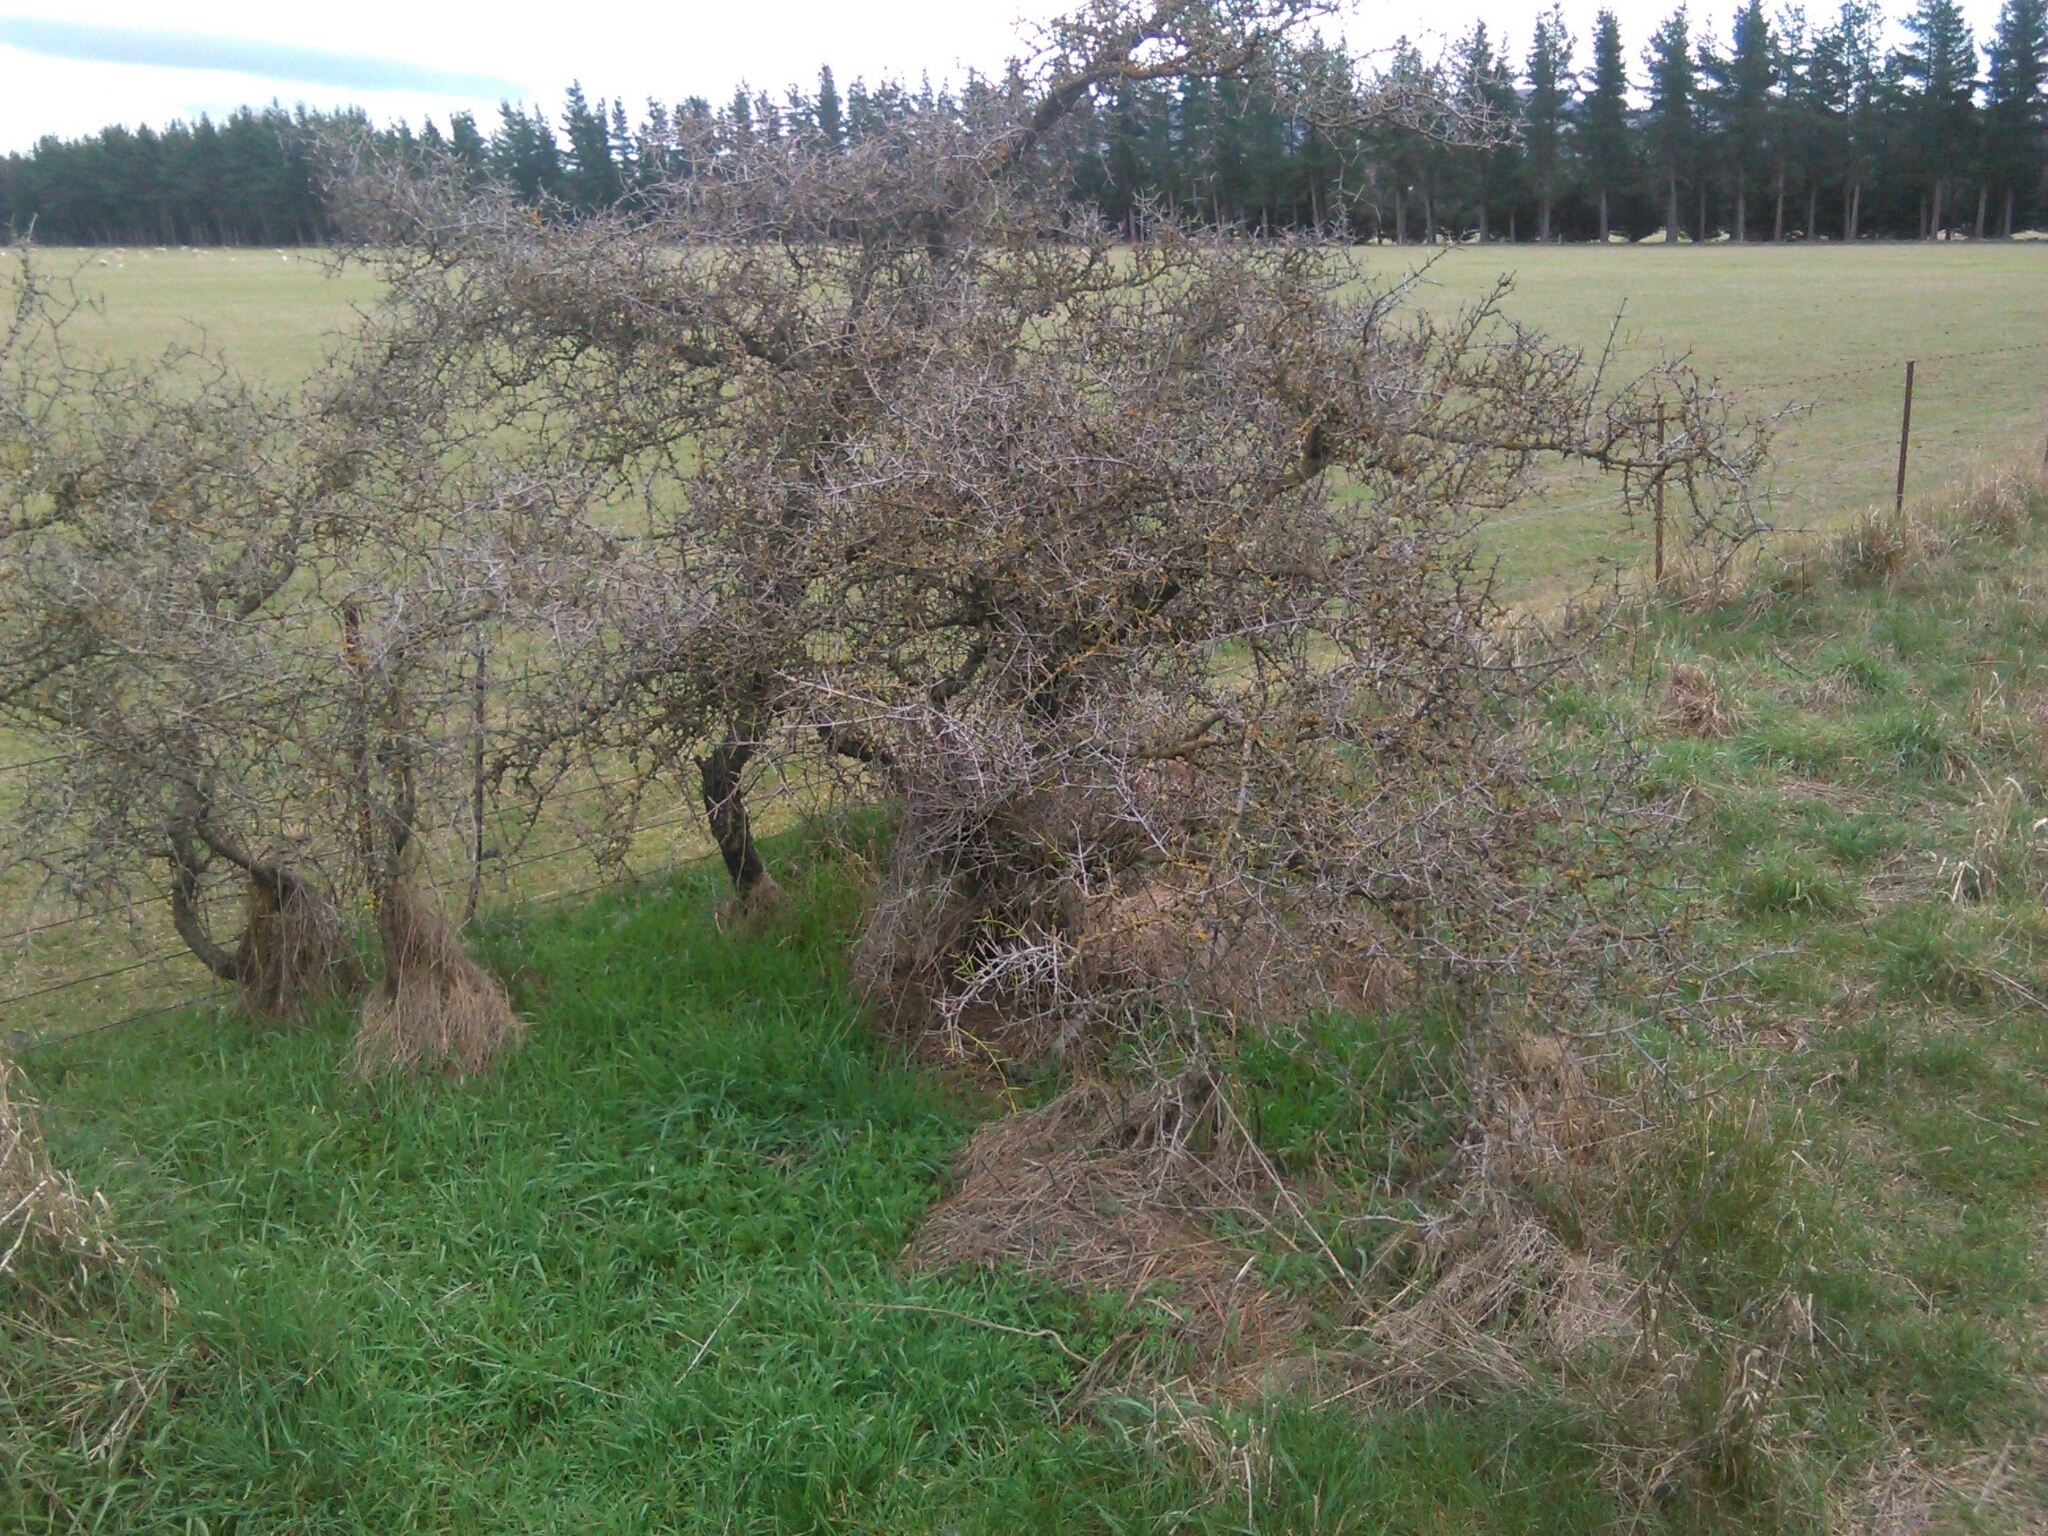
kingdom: Plantae
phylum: Tracheophyta
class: Magnoliopsida
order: Rosales
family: Rhamnaceae
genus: Discaria
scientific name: Discaria toumatou
